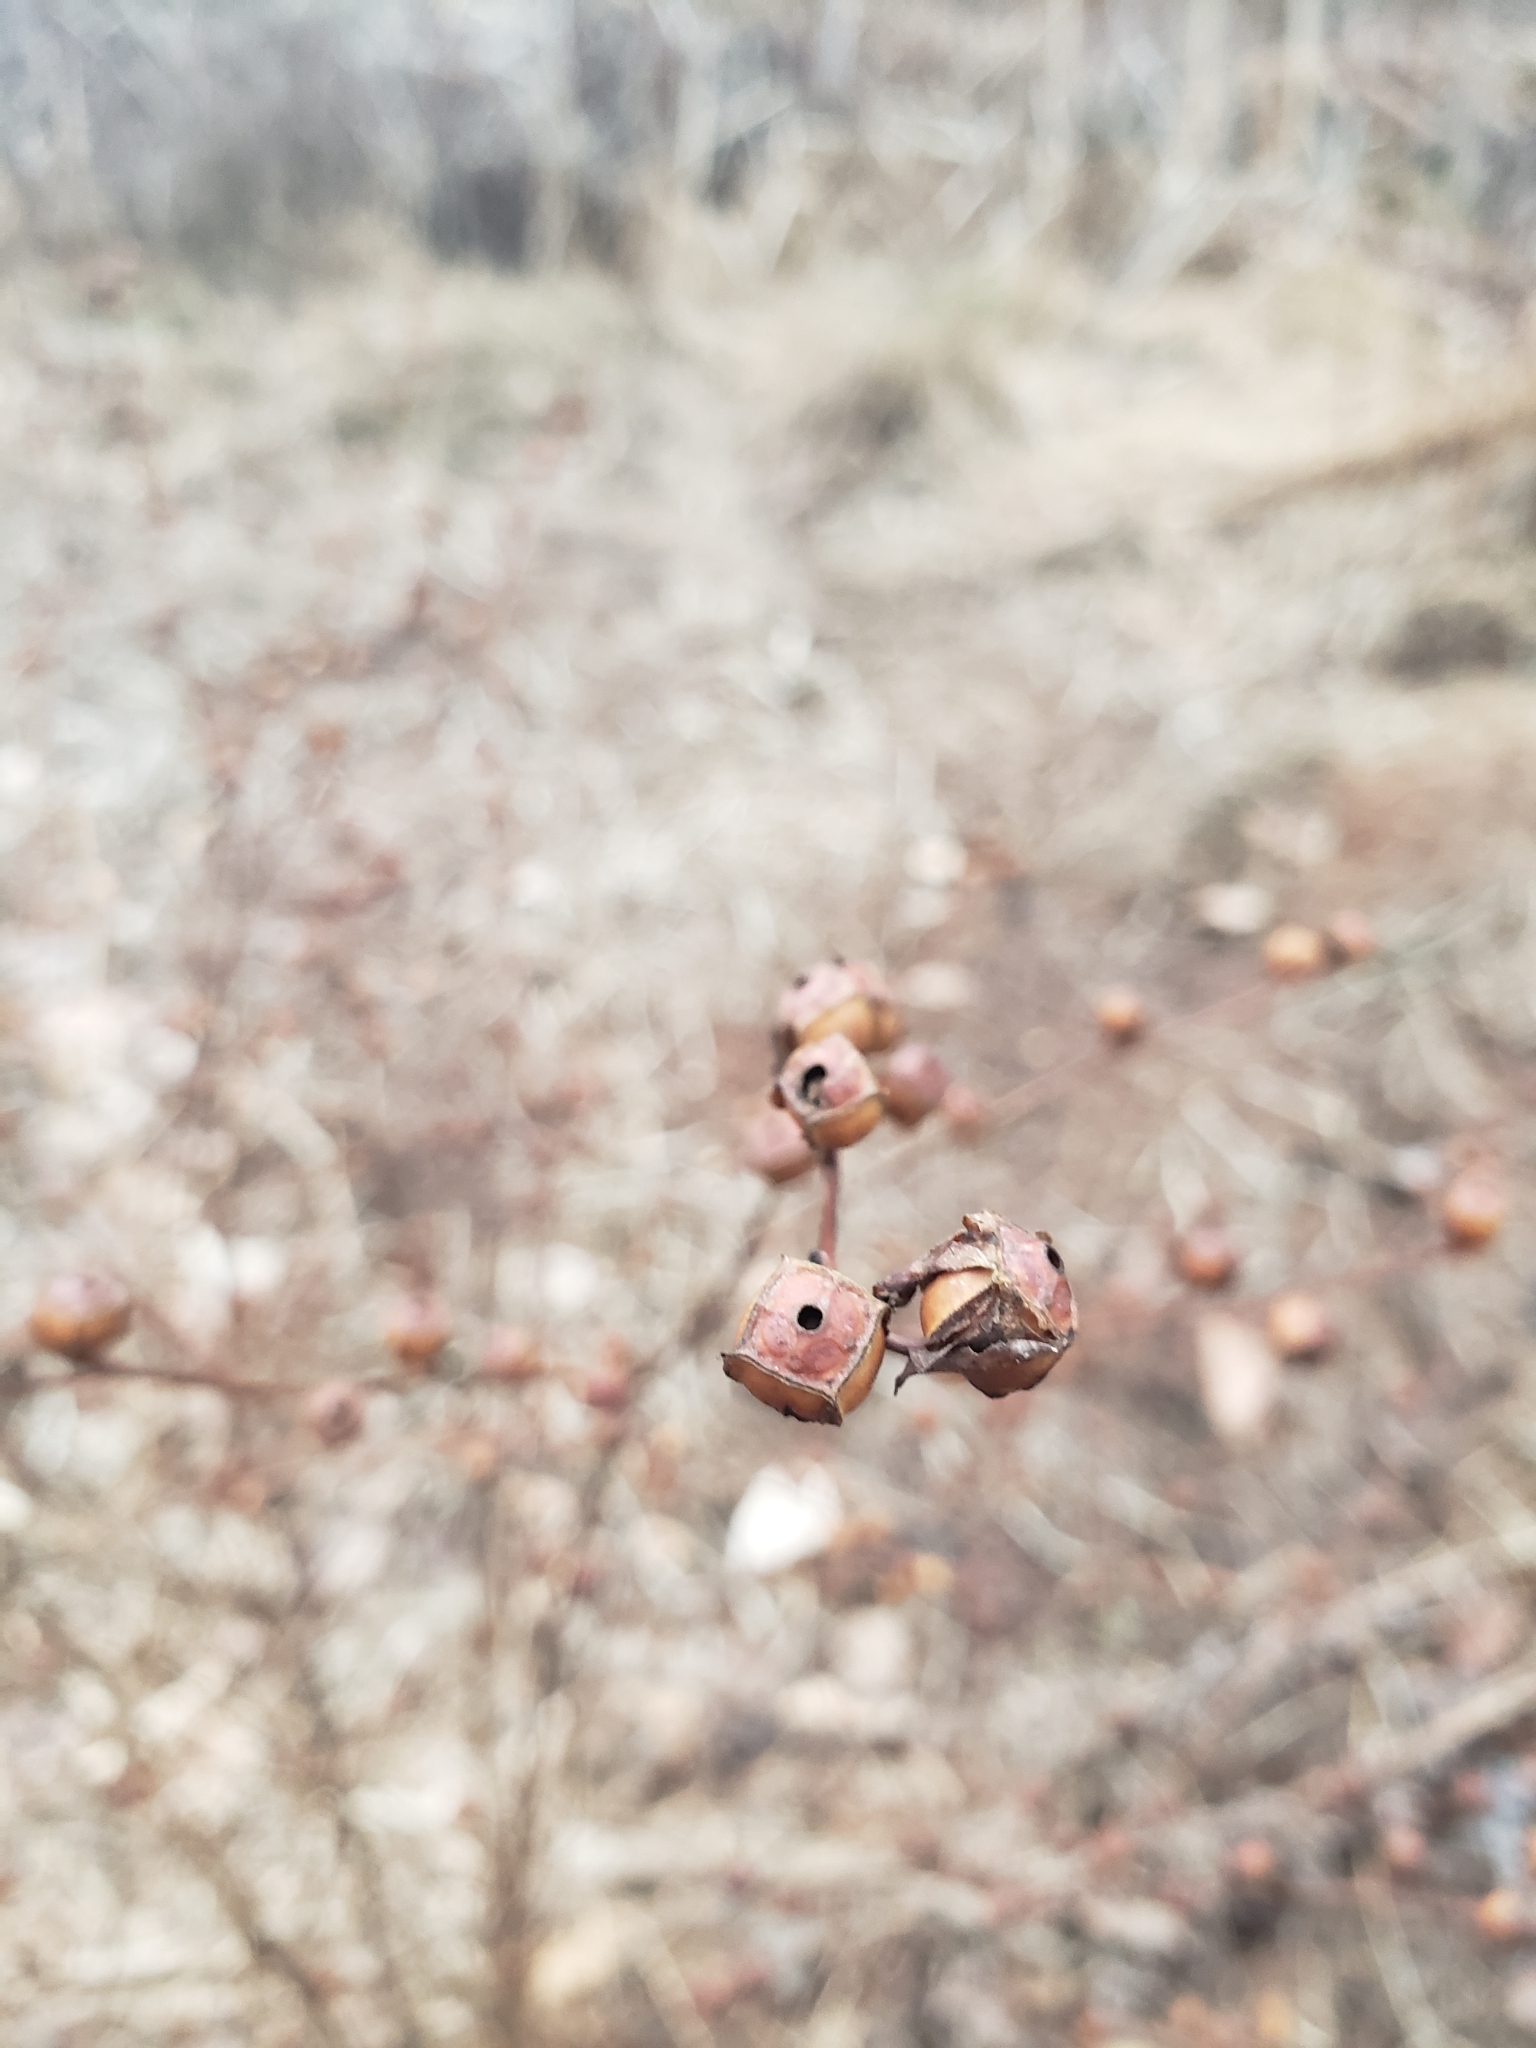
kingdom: Plantae
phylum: Tracheophyta
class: Magnoliopsida
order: Myrtales
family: Onagraceae
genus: Ludwigia
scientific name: Ludwigia alternifolia
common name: Rattlebox
